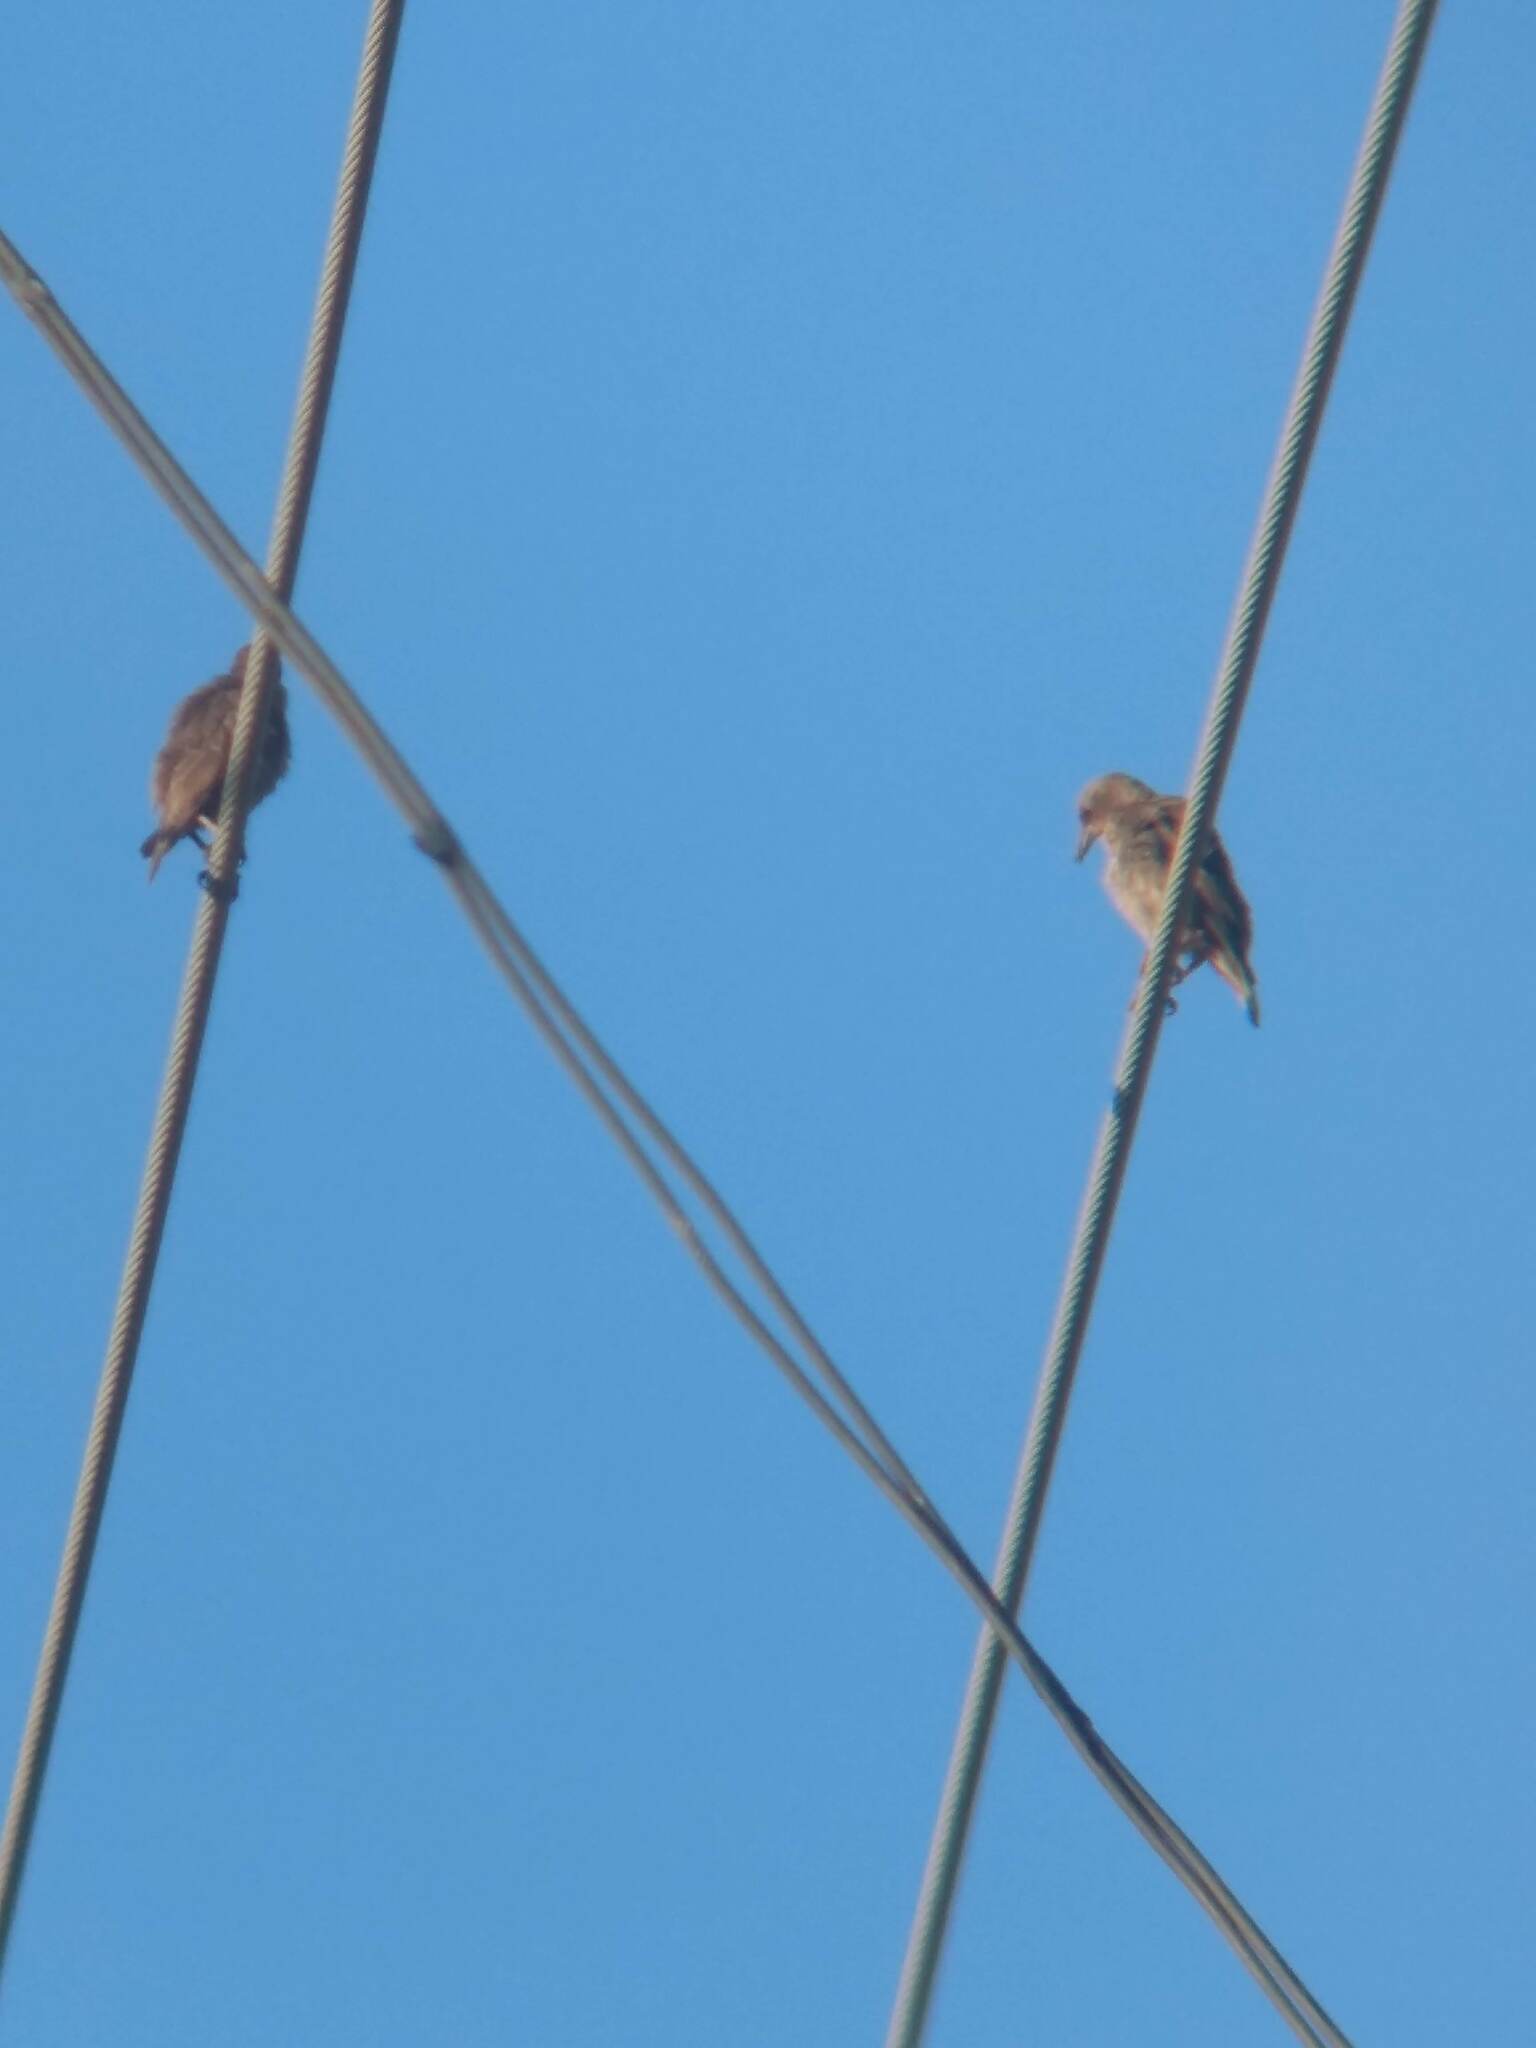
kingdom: Animalia
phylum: Chordata
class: Aves
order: Passeriformes
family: Sturnidae
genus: Sturnus
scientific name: Sturnus vulgaris
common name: Common starling
